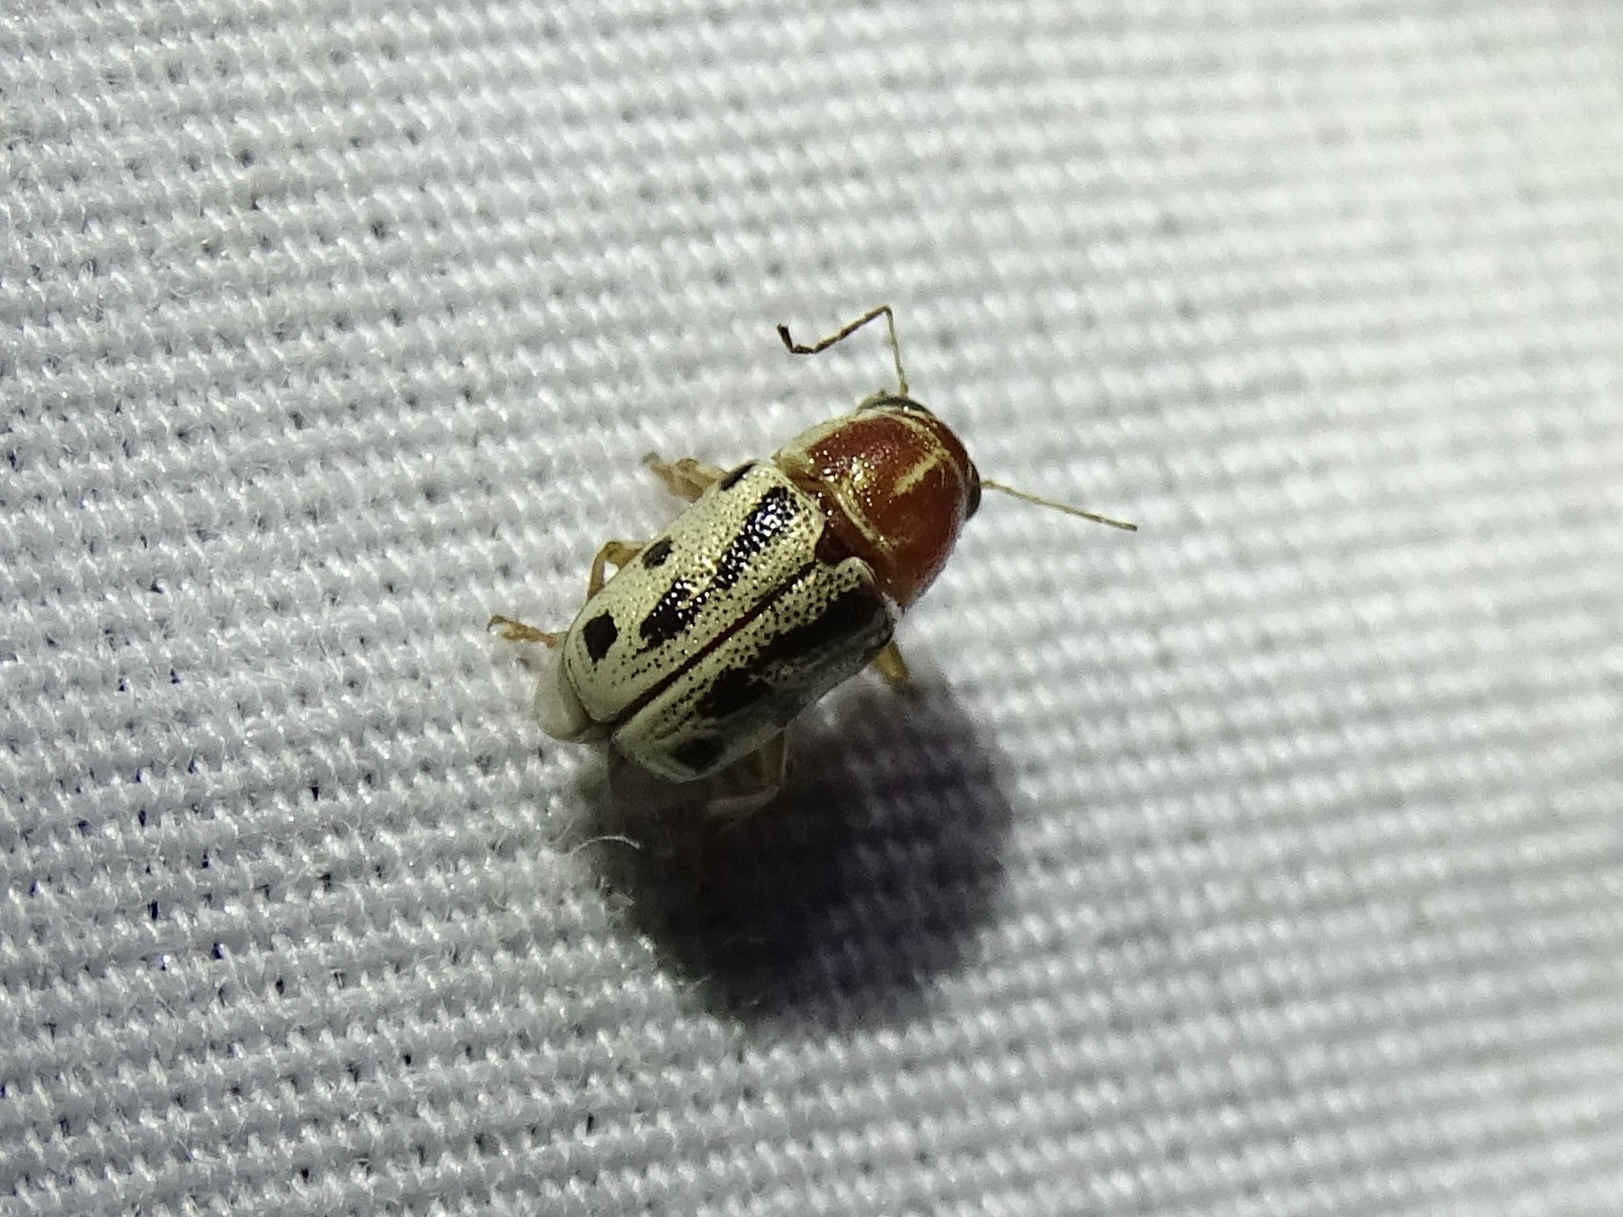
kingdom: Animalia
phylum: Arthropoda
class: Insecta
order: Coleoptera
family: Chrysomelidae
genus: Pachybrachis
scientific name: Pachybrachis bivittatus
